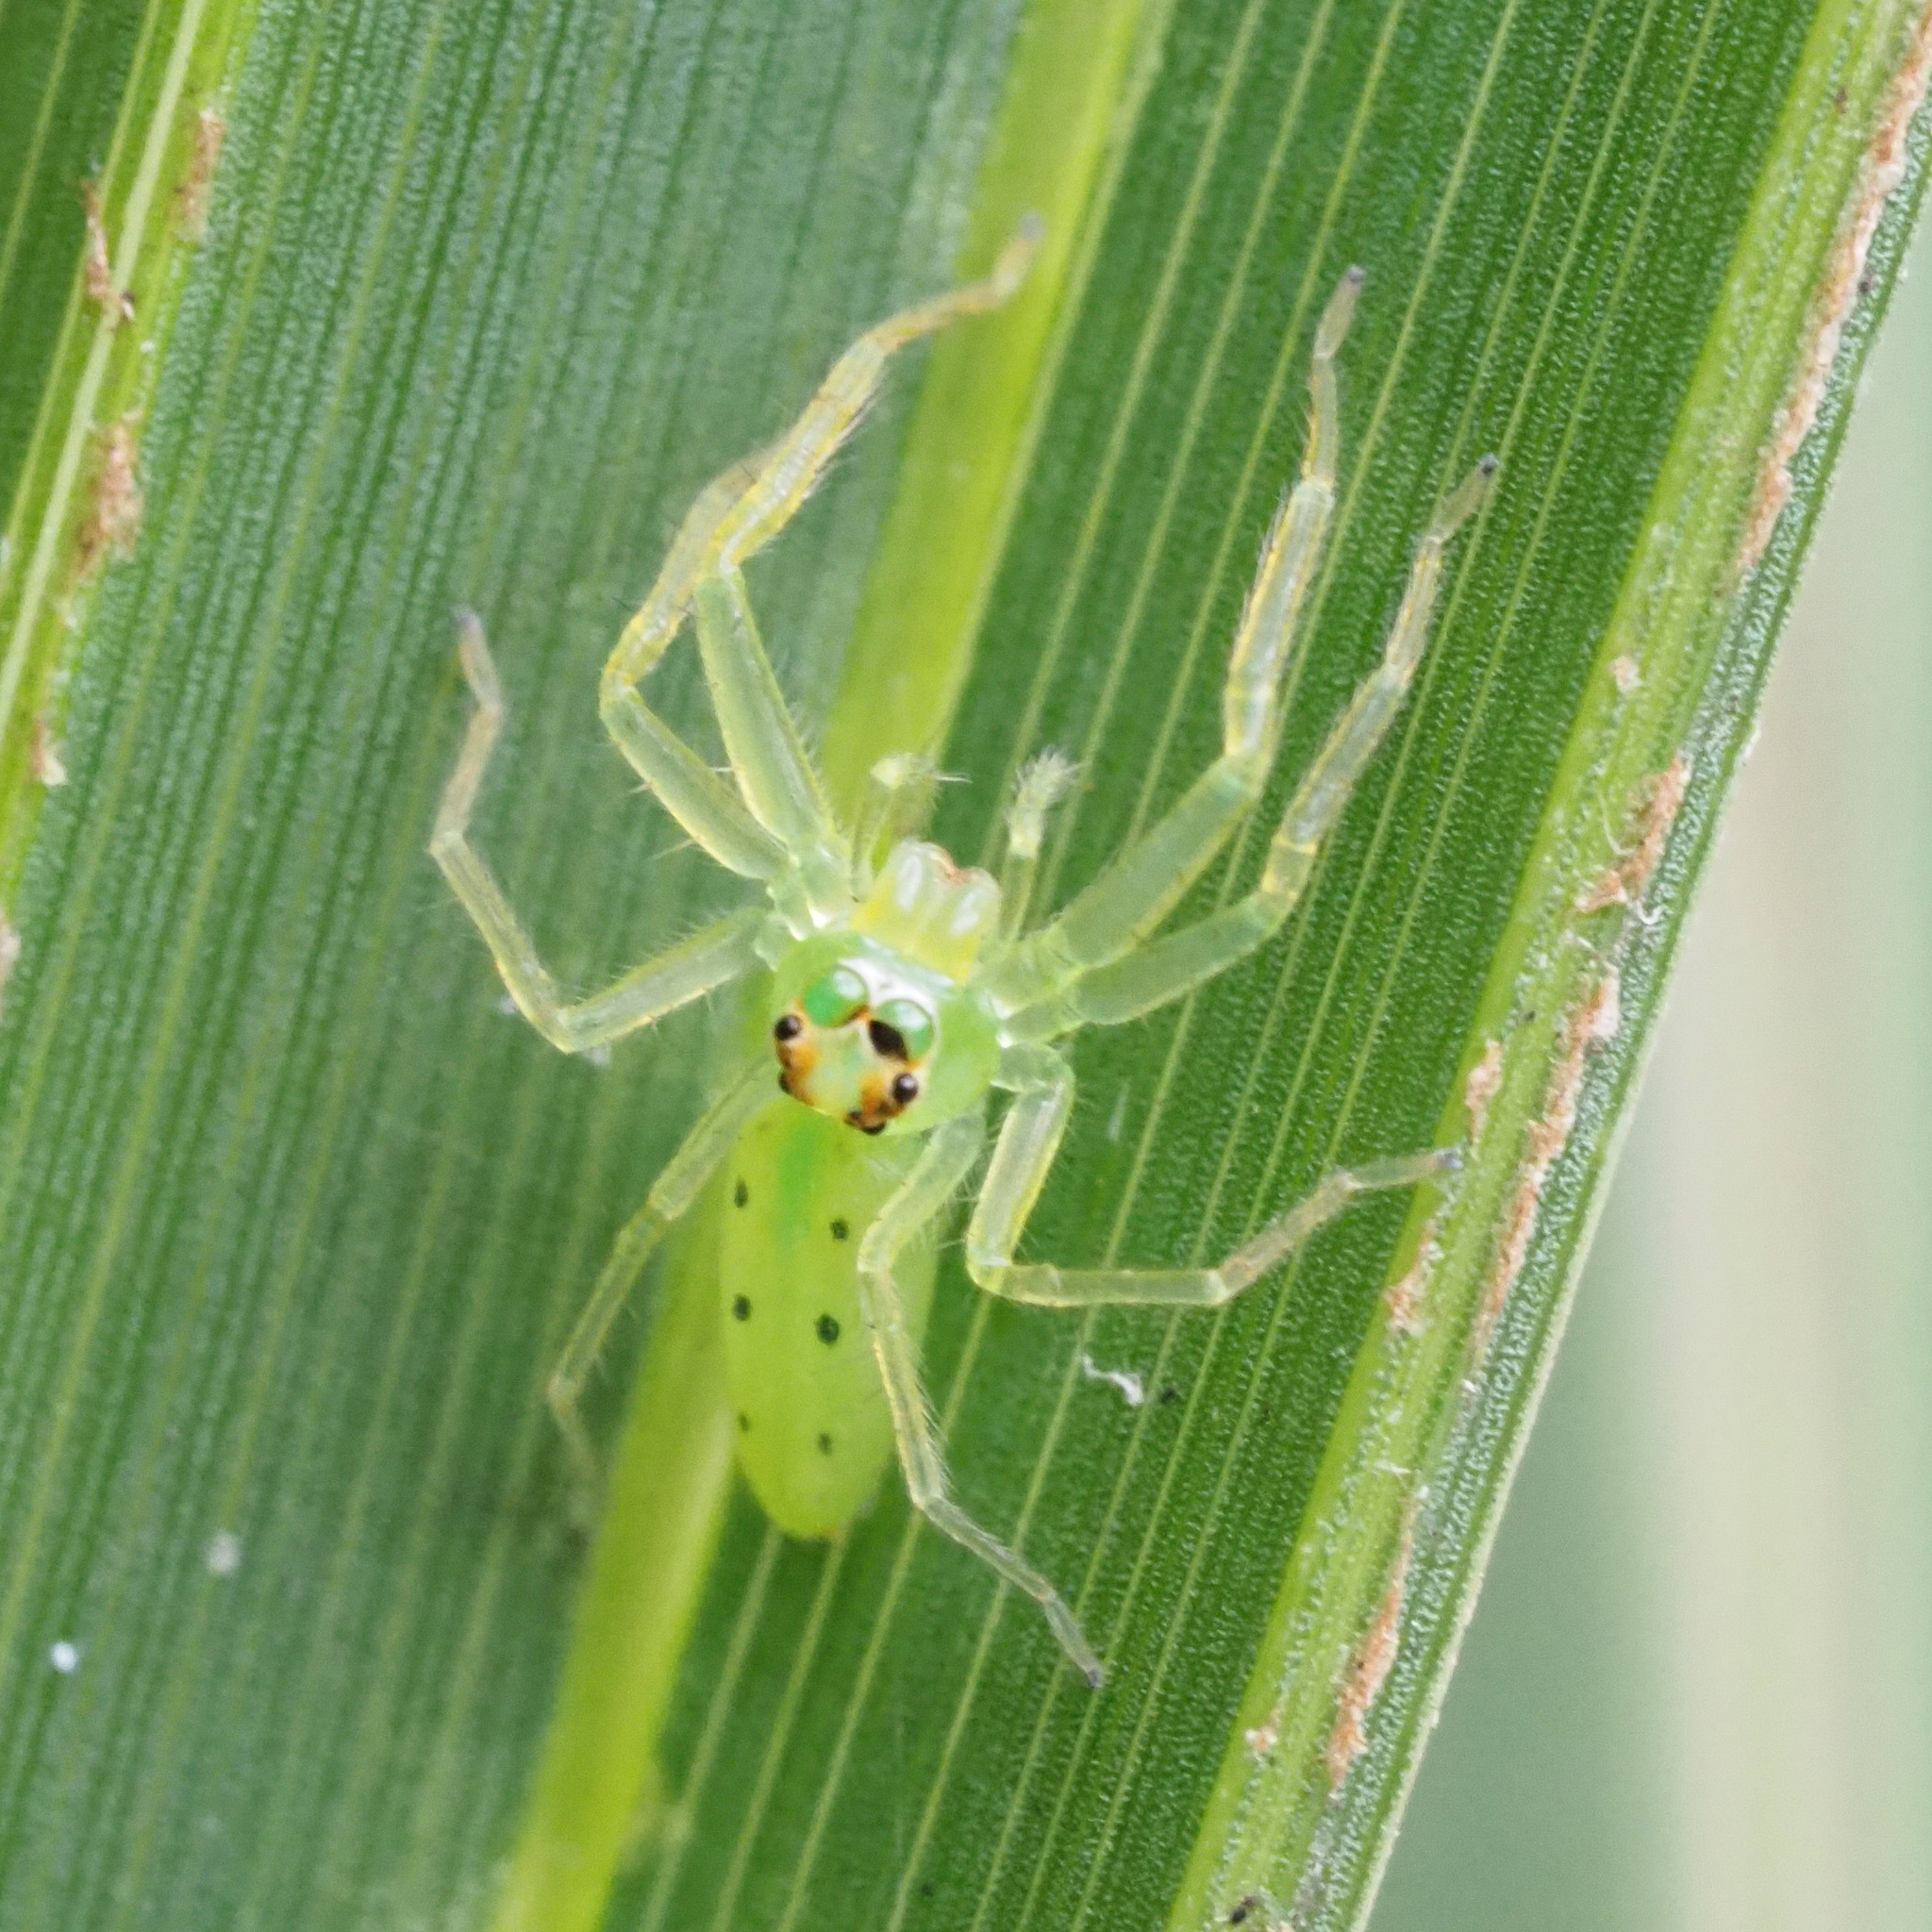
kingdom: Animalia
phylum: Arthropoda
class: Arachnida
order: Araneae
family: Salticidae
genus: Lyssomanes
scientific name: Lyssomanes viridis
